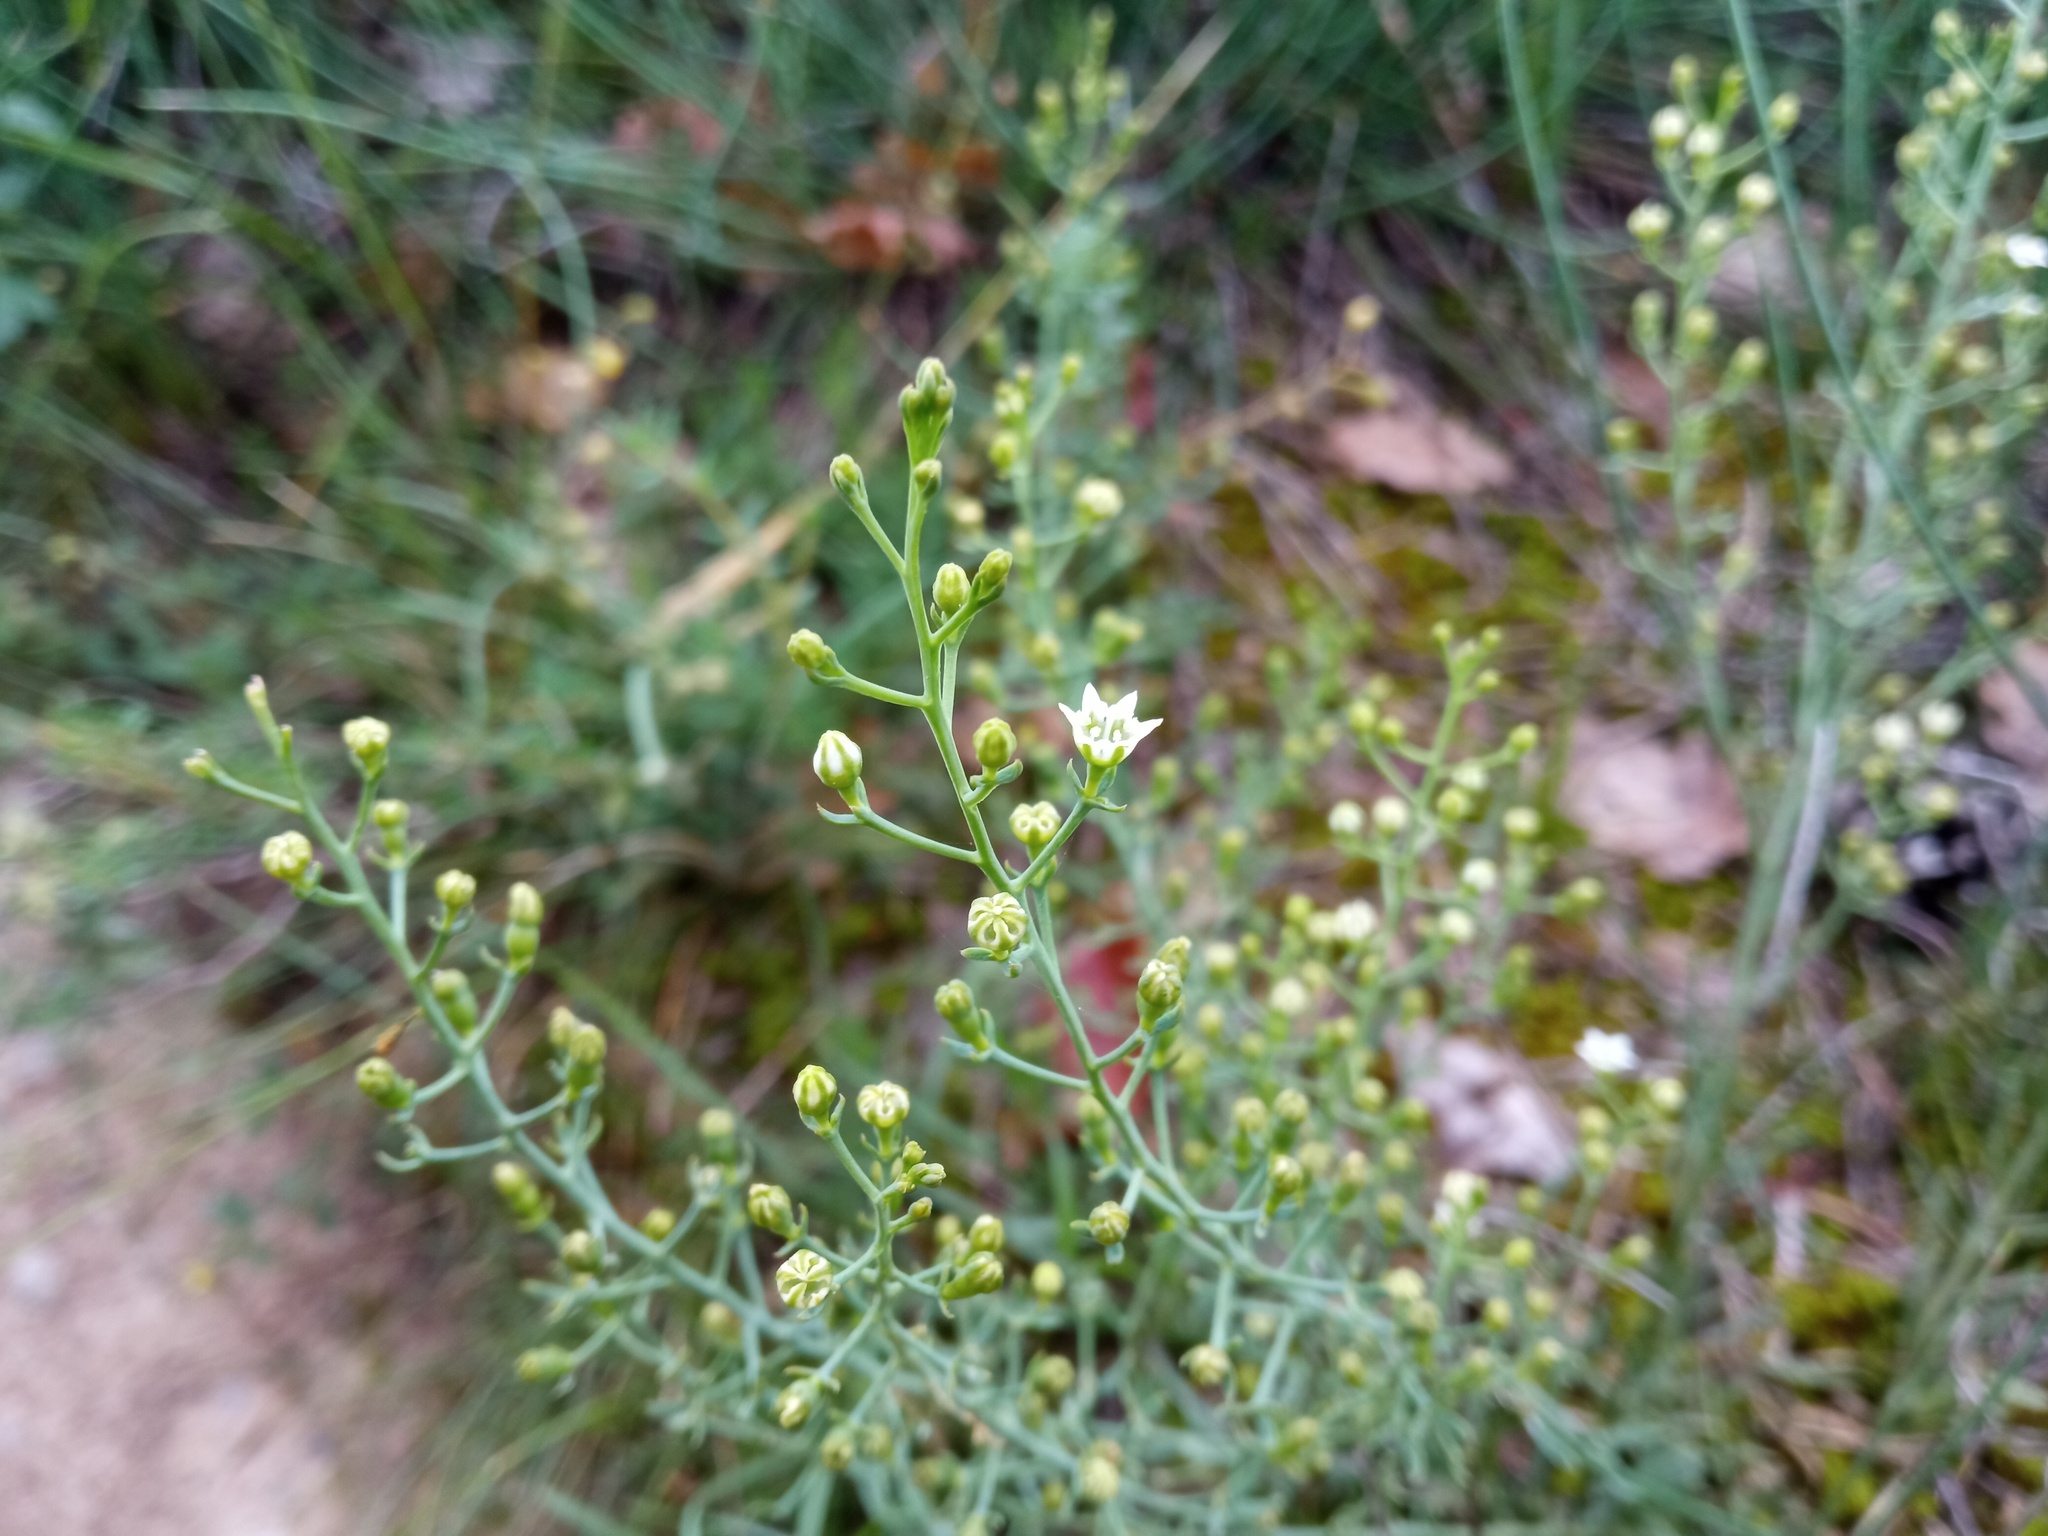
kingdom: Plantae
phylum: Tracheophyta
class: Magnoliopsida
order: Santalales
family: Thesiaceae
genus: Thesium
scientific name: Thesium divaricatum
